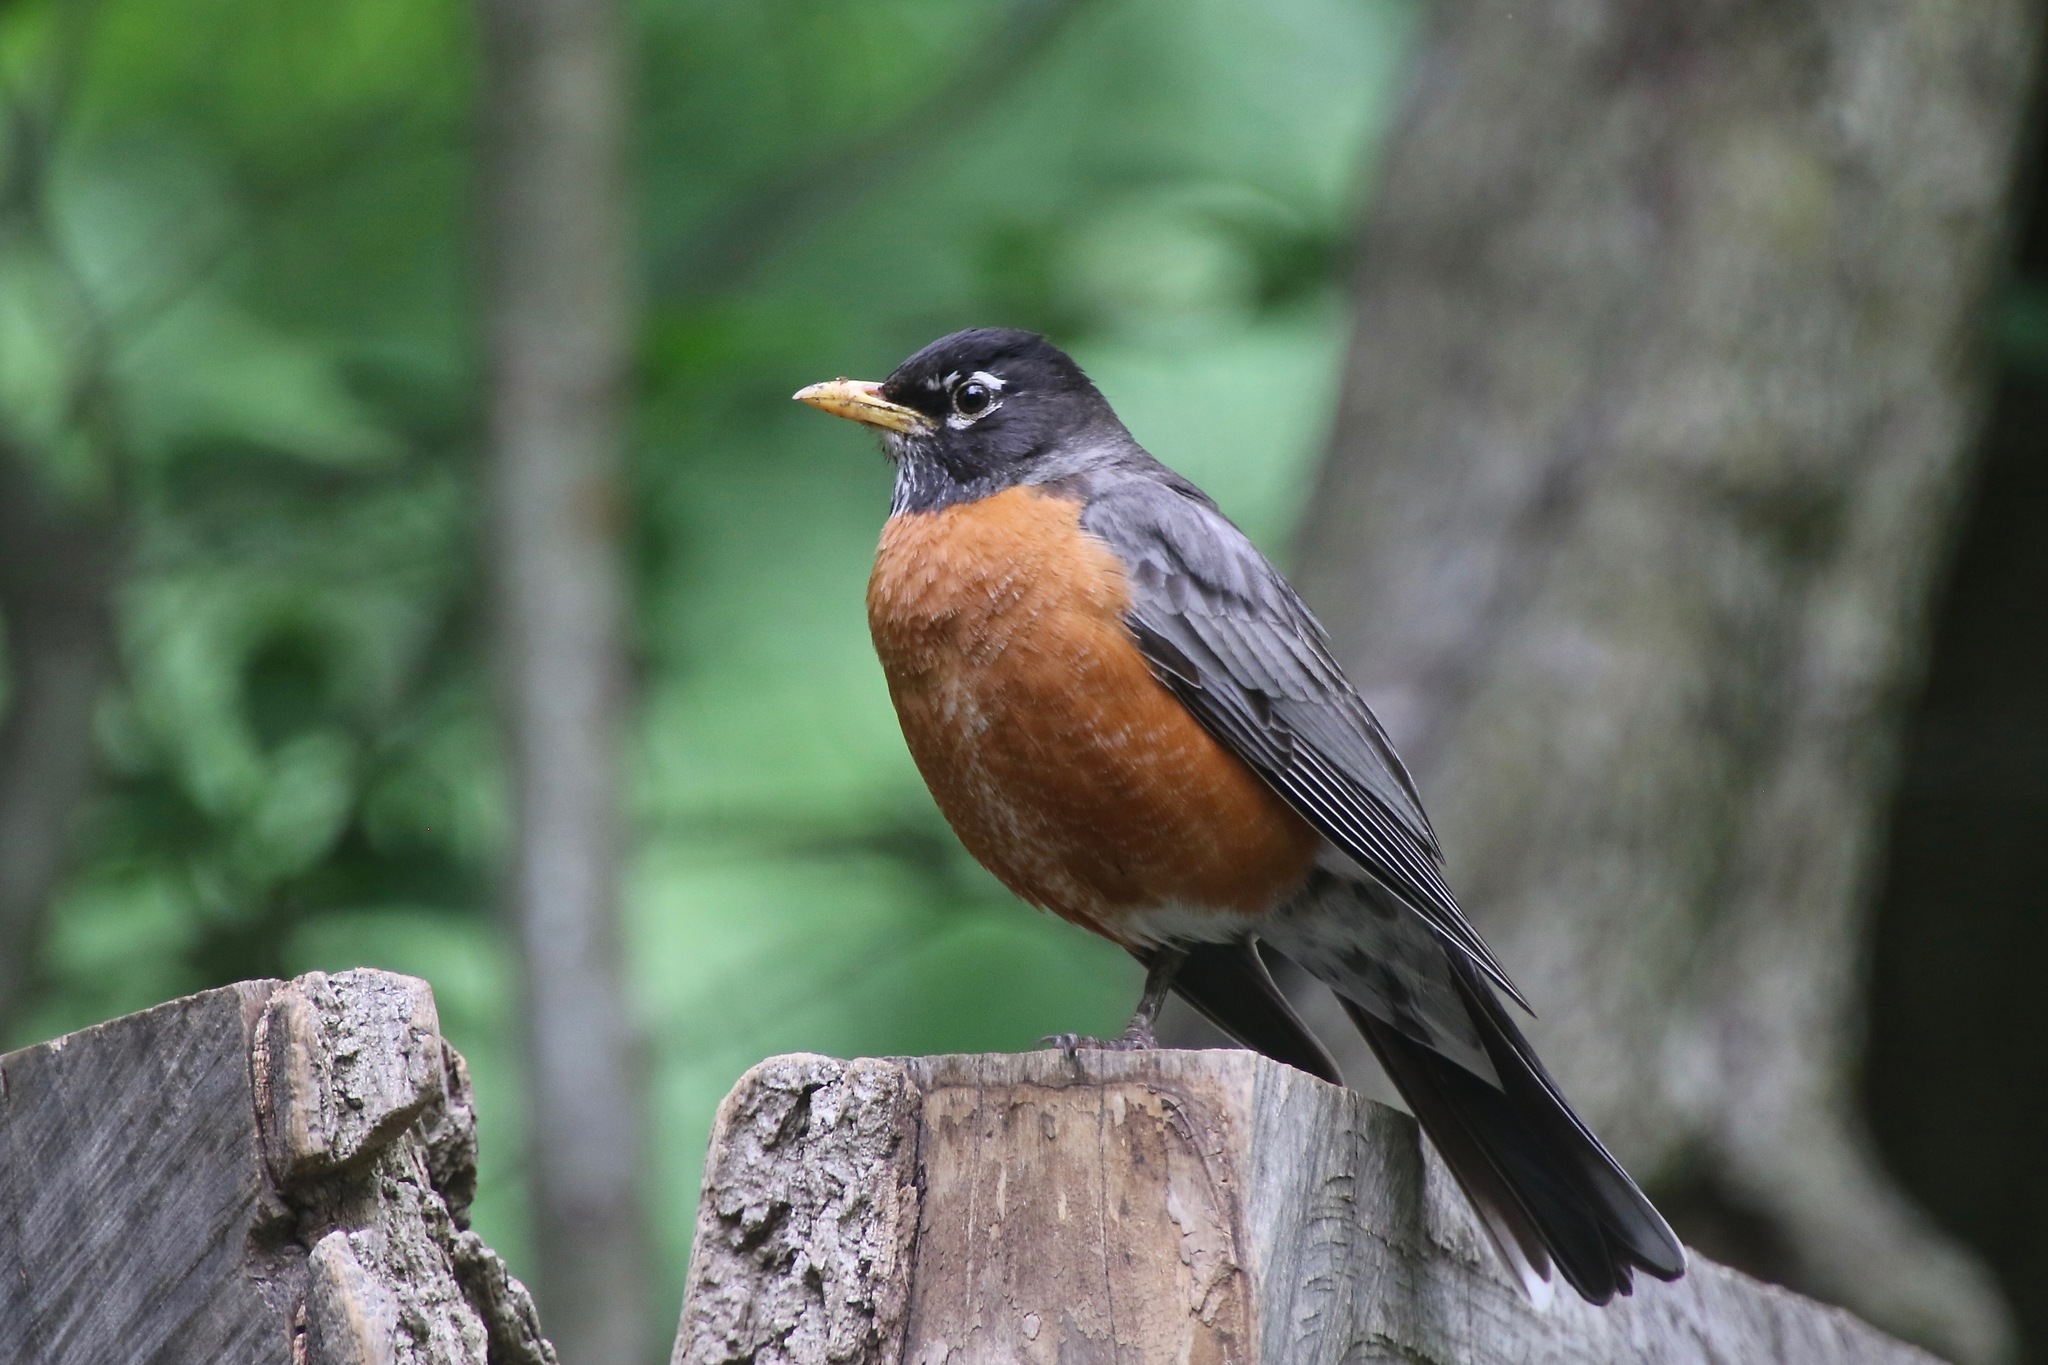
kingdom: Animalia
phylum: Chordata
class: Aves
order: Passeriformes
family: Turdidae
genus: Turdus
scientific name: Turdus migratorius
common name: American robin
